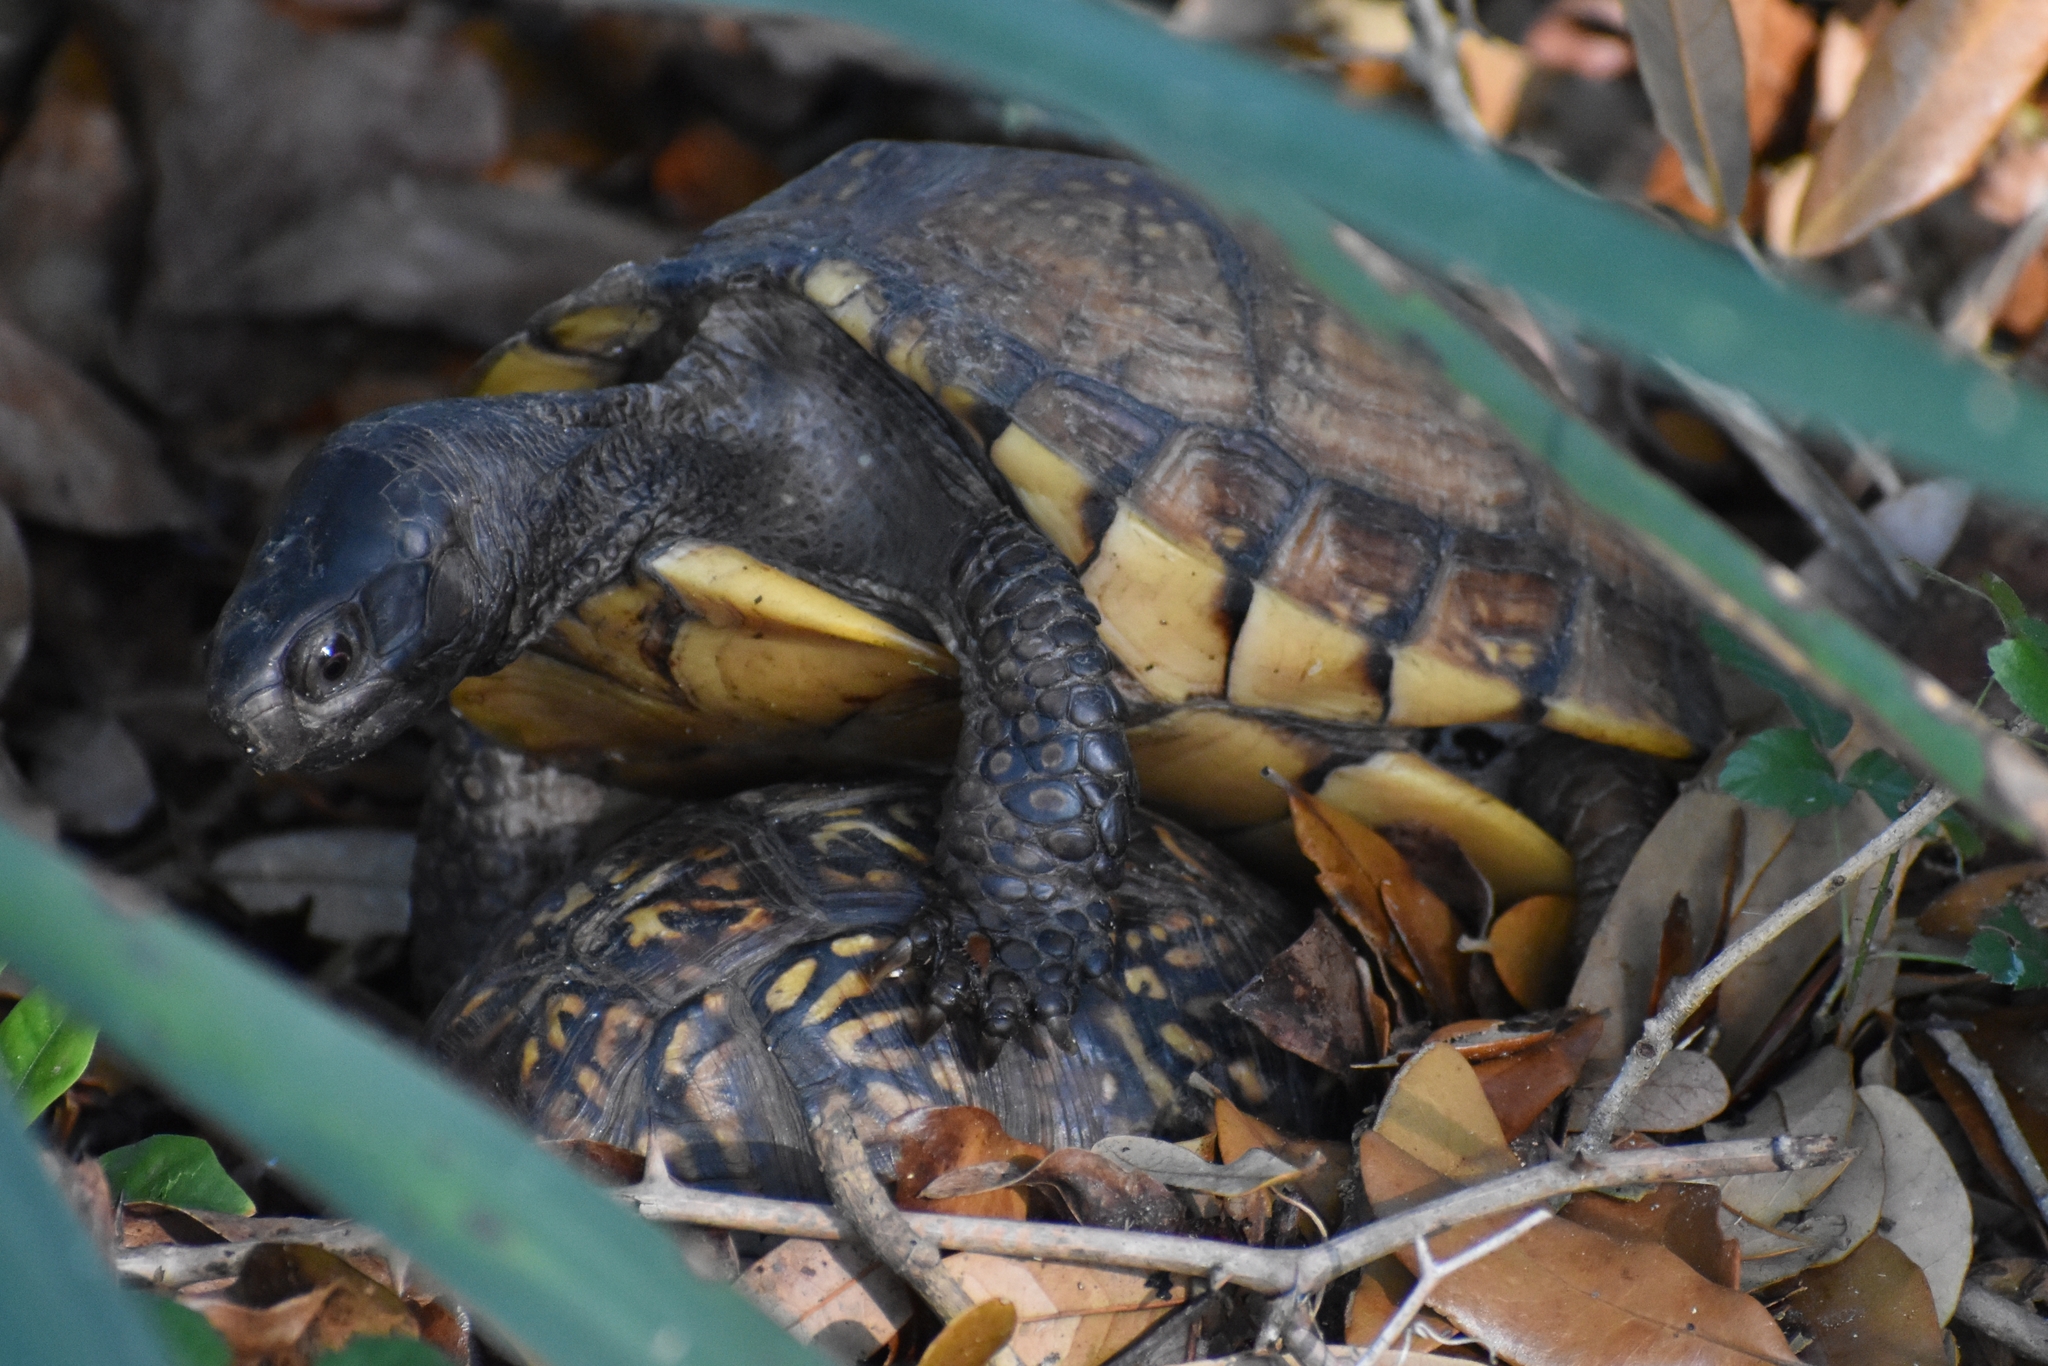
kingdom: Animalia
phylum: Chordata
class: Testudines
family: Emydidae
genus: Terrapene
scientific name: Terrapene carolina
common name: Common box turtle
